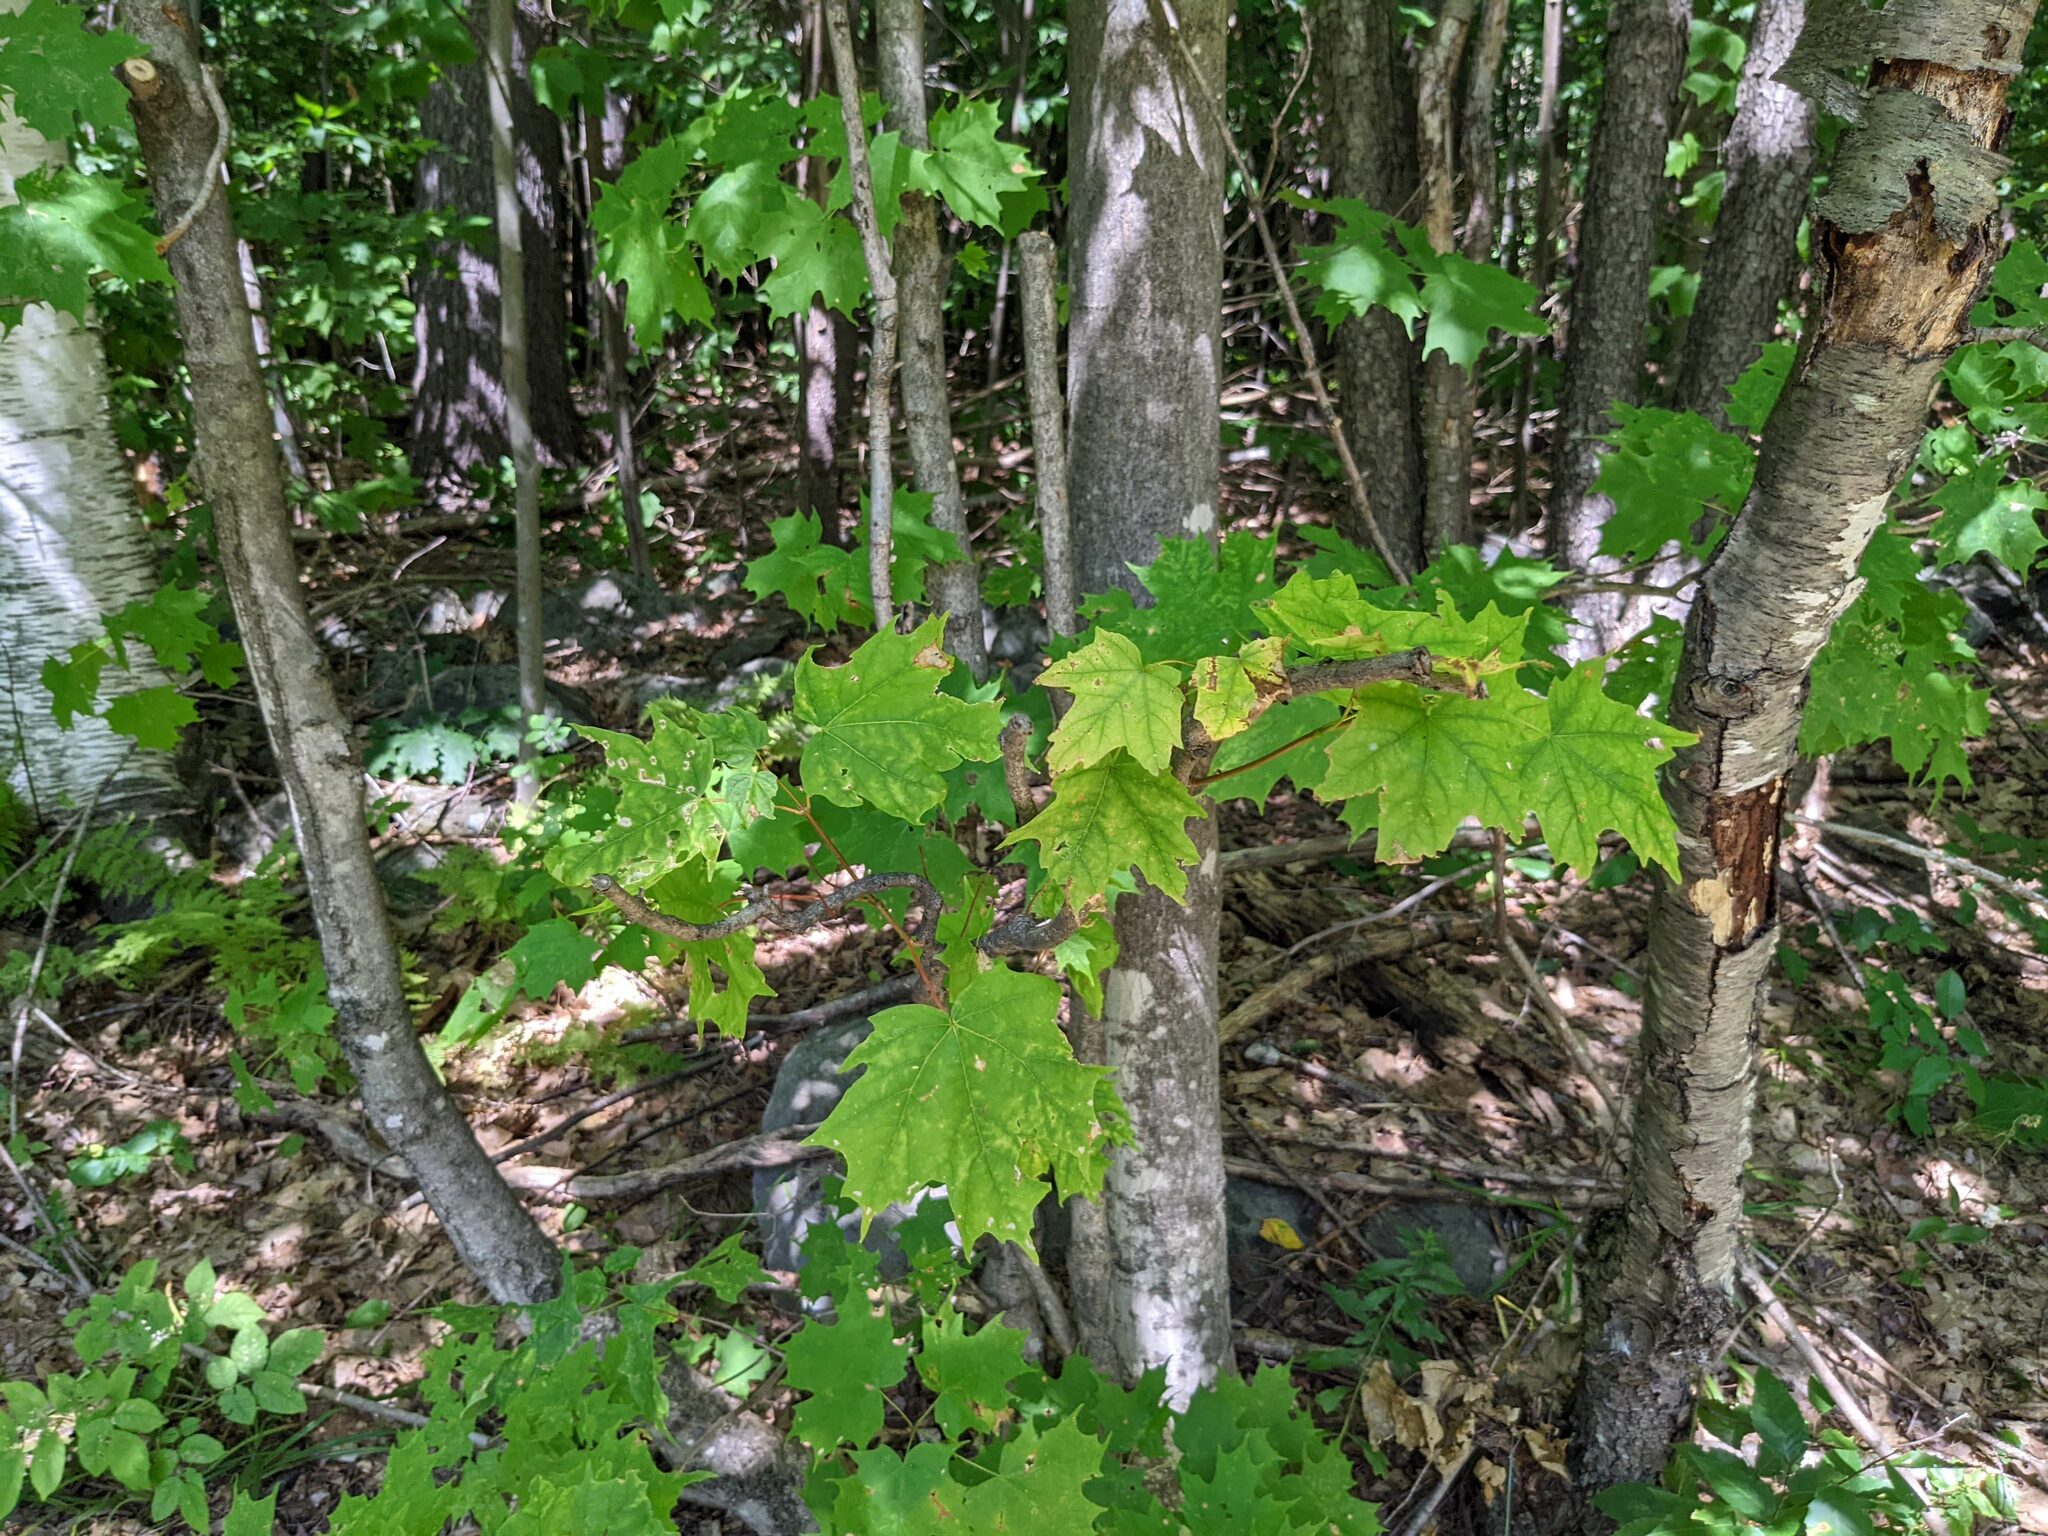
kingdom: Plantae
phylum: Tracheophyta
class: Magnoliopsida
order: Sapindales
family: Sapindaceae
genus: Acer
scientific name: Acer saccharum
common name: Sugar maple
